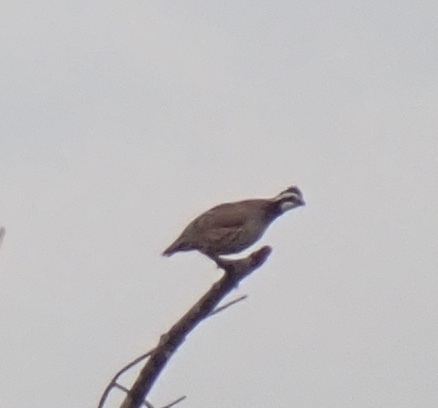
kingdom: Animalia
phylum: Chordata
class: Aves
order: Galliformes
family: Odontophoridae
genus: Colinus
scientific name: Colinus virginianus
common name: Northern bobwhite
